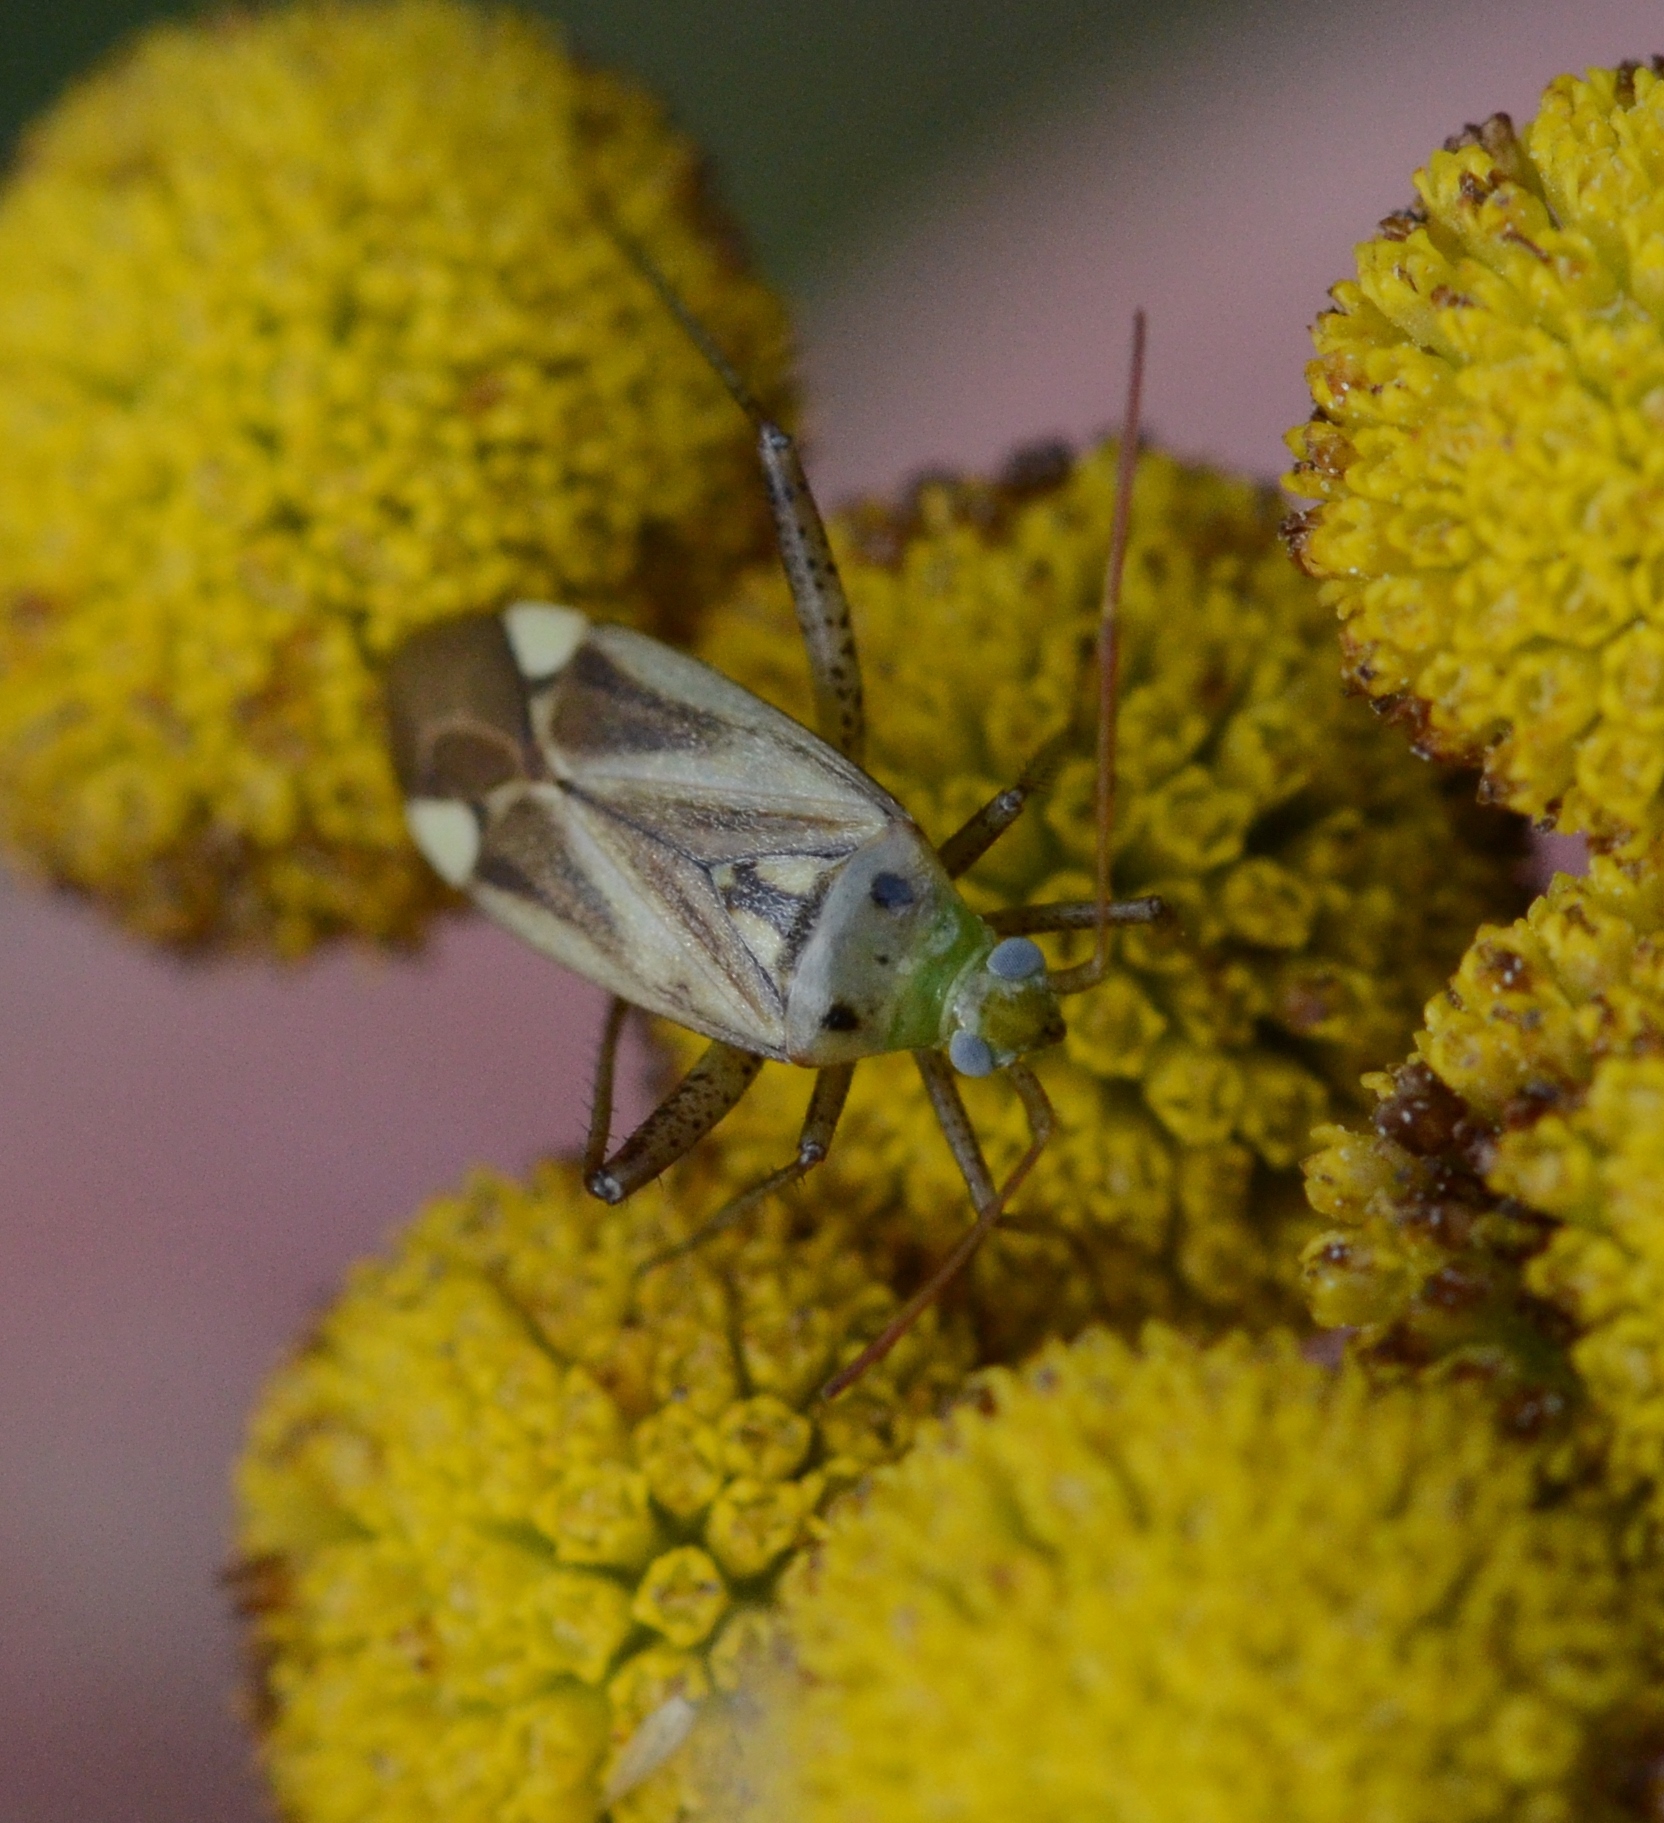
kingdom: Animalia
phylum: Arthropoda
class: Insecta
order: Hemiptera
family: Miridae
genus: Adelphocoris
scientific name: Adelphocoris lineolatus
